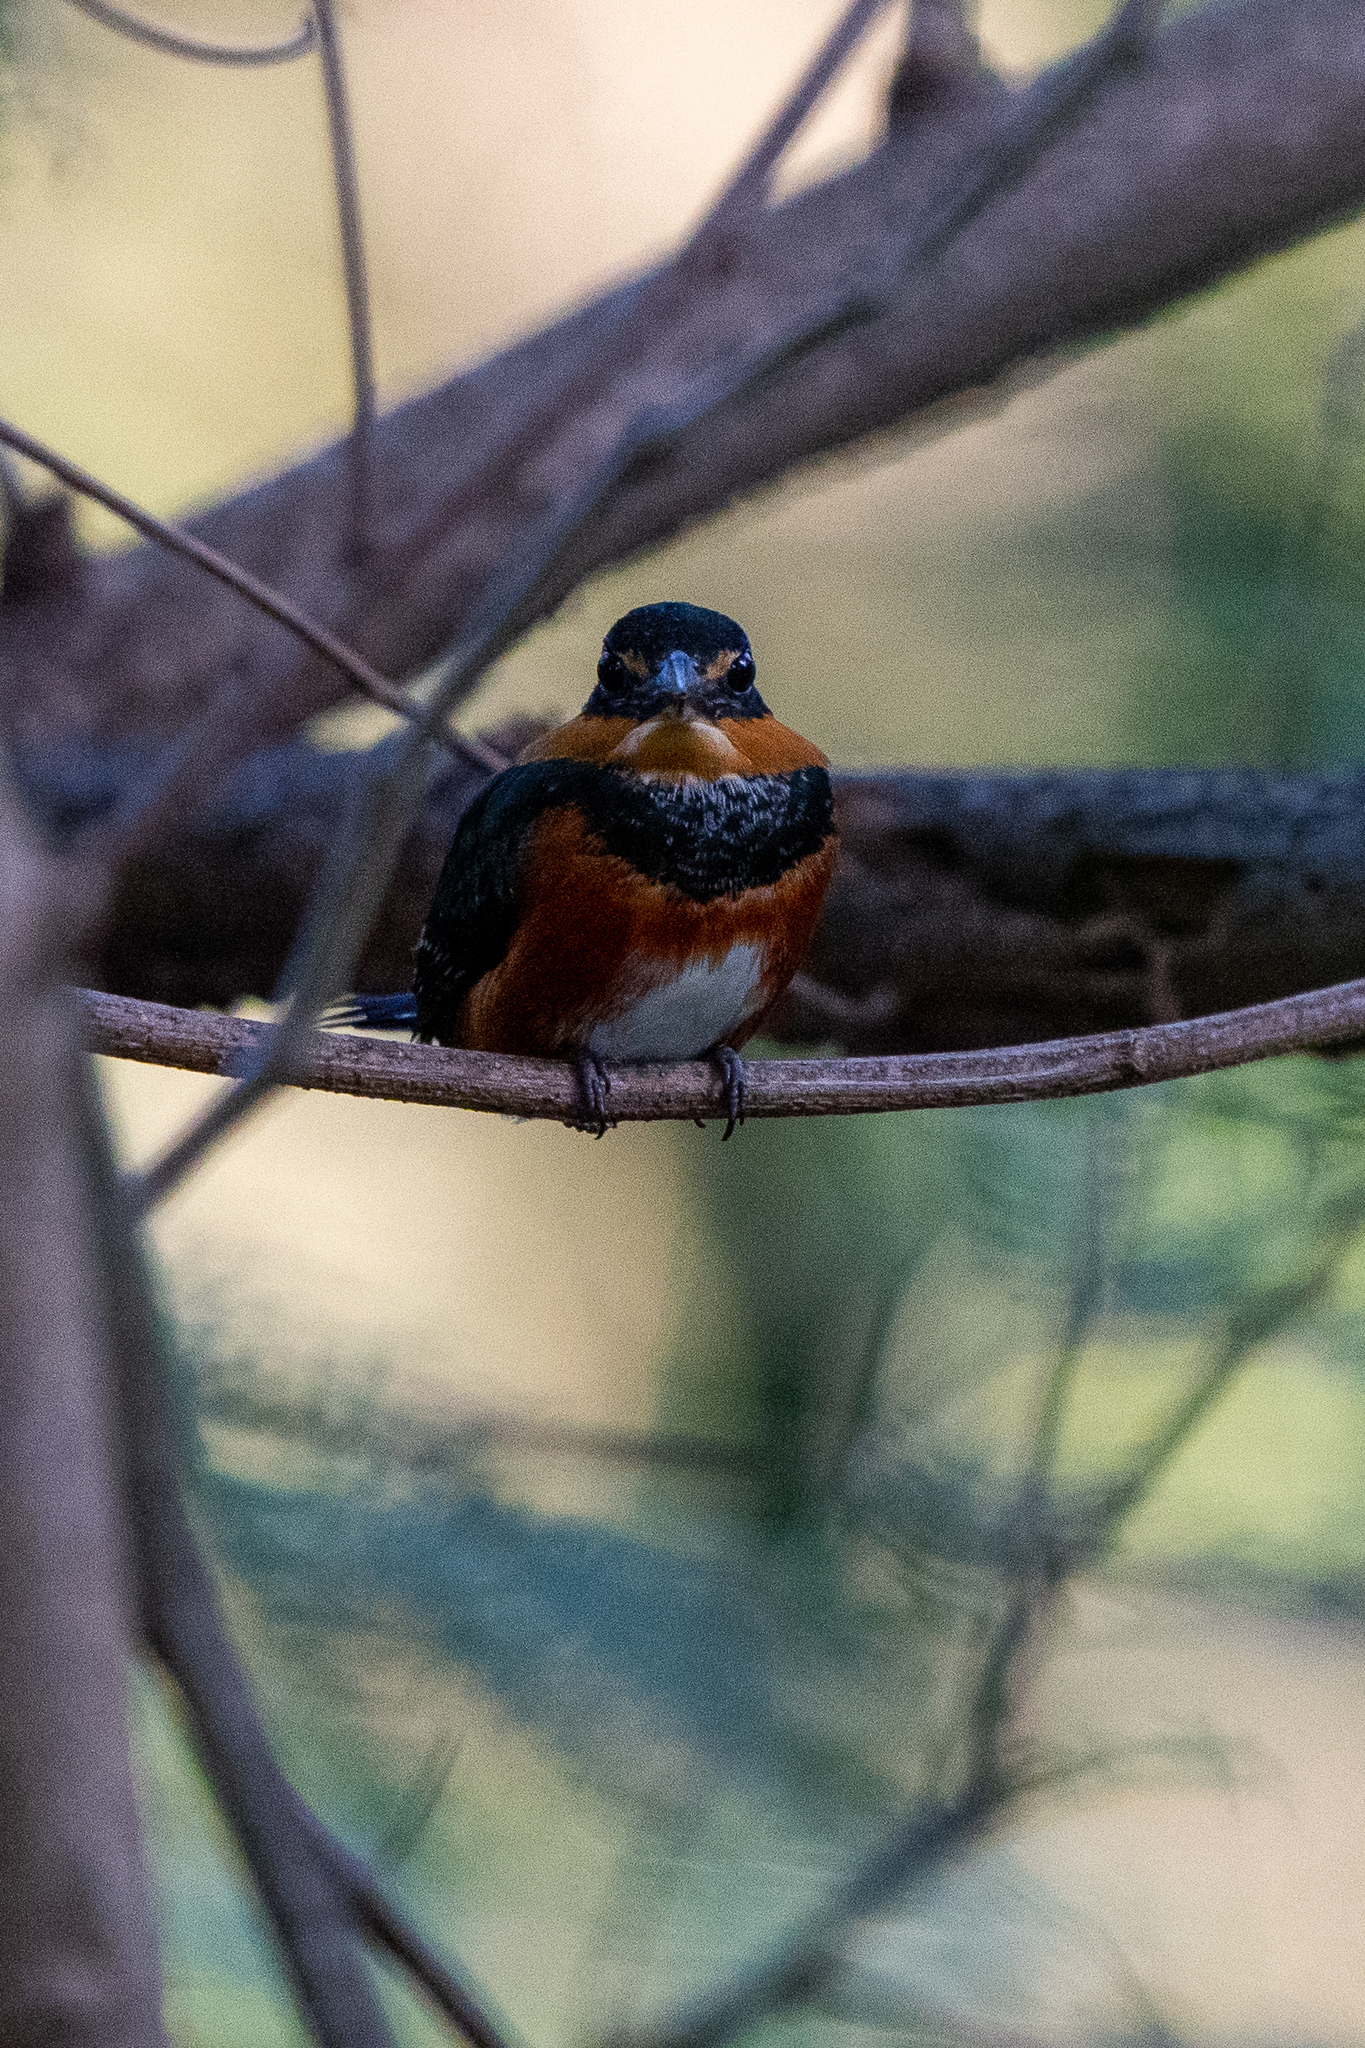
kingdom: Animalia
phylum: Chordata
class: Aves
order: Coraciiformes
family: Alcedinidae
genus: Chloroceryle
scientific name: Chloroceryle aenea
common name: American pygmy kingfisher
